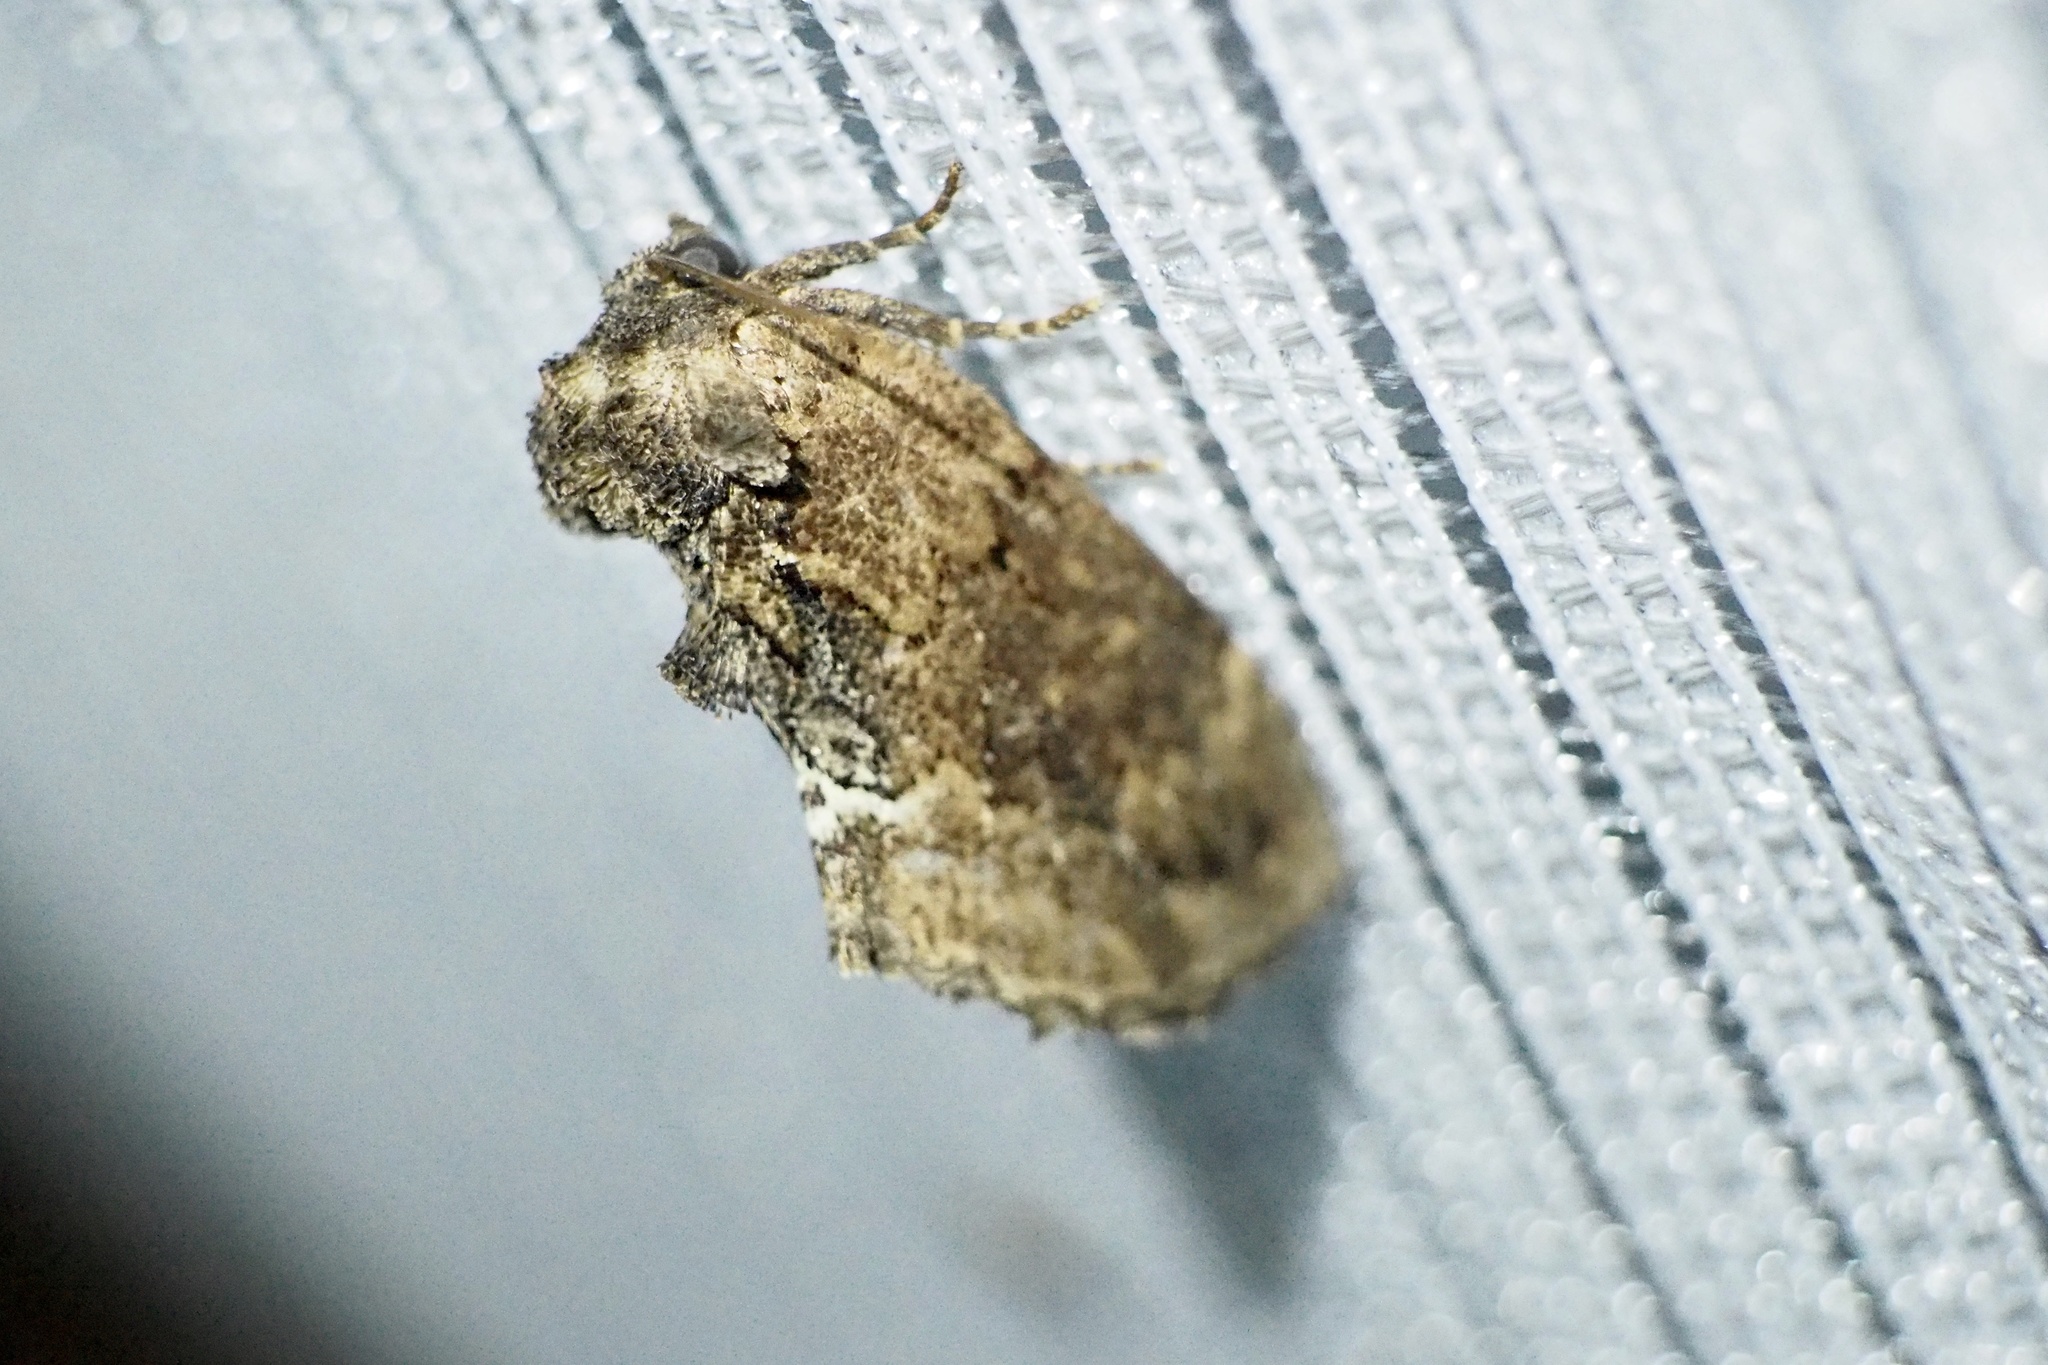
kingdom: Animalia
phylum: Arthropoda
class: Insecta
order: Lepidoptera
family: Notodontidae
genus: Lophontosia
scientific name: Lophontosia
